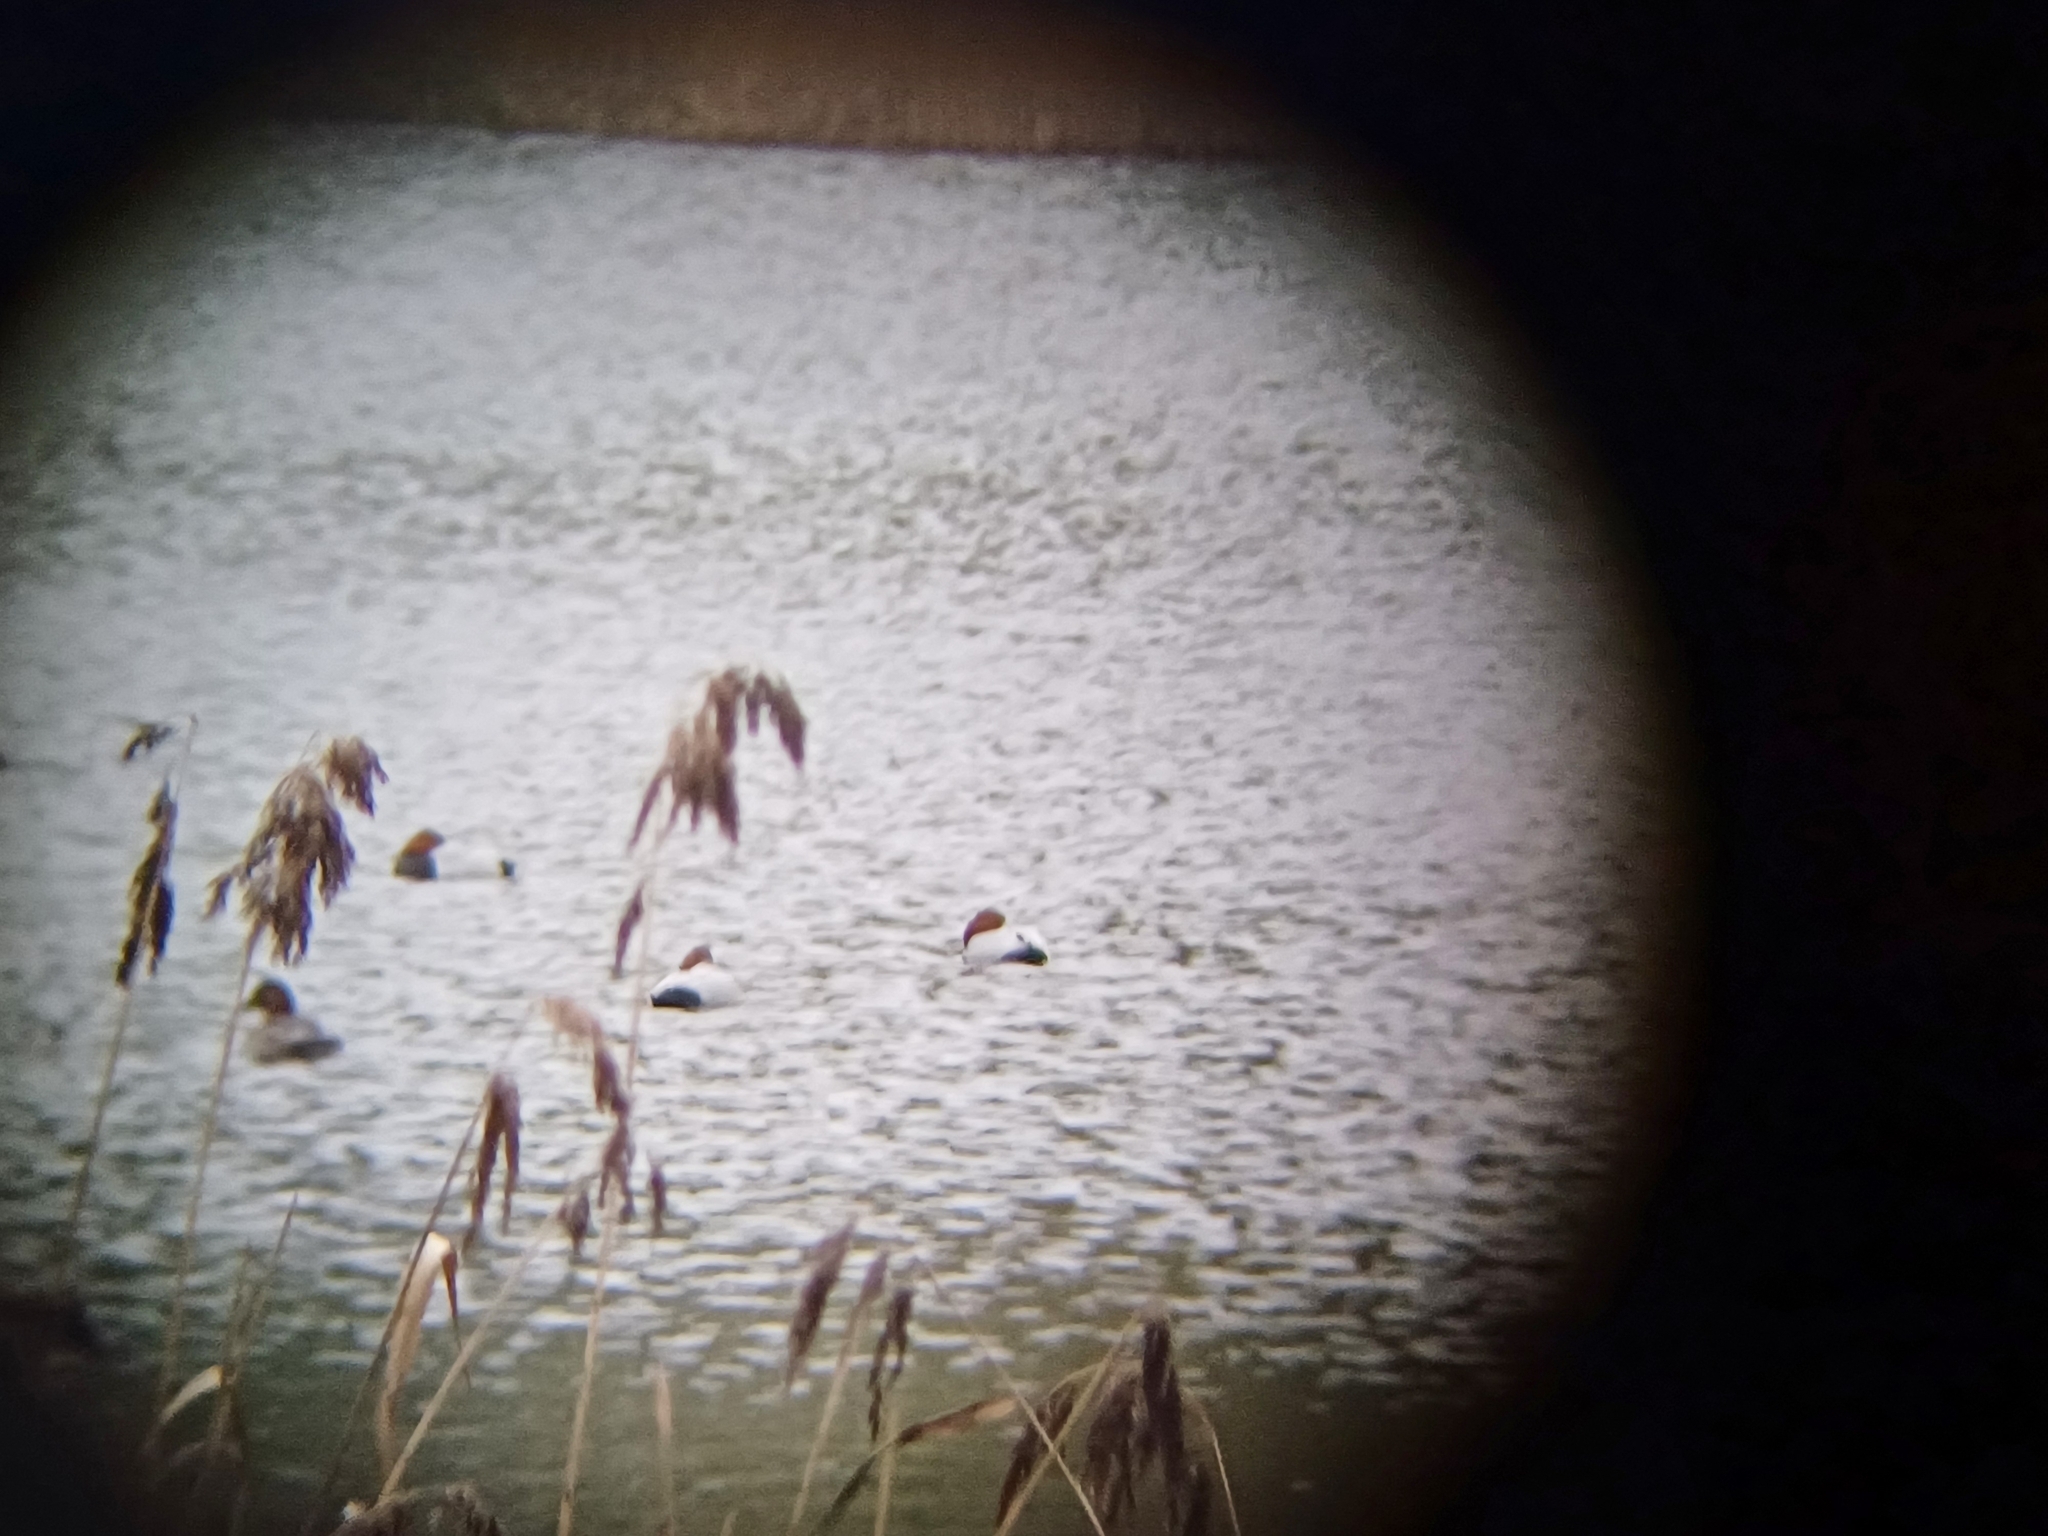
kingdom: Animalia
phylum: Chordata
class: Aves
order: Anseriformes
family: Anatidae
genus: Aythya
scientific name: Aythya ferina
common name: Common pochard
